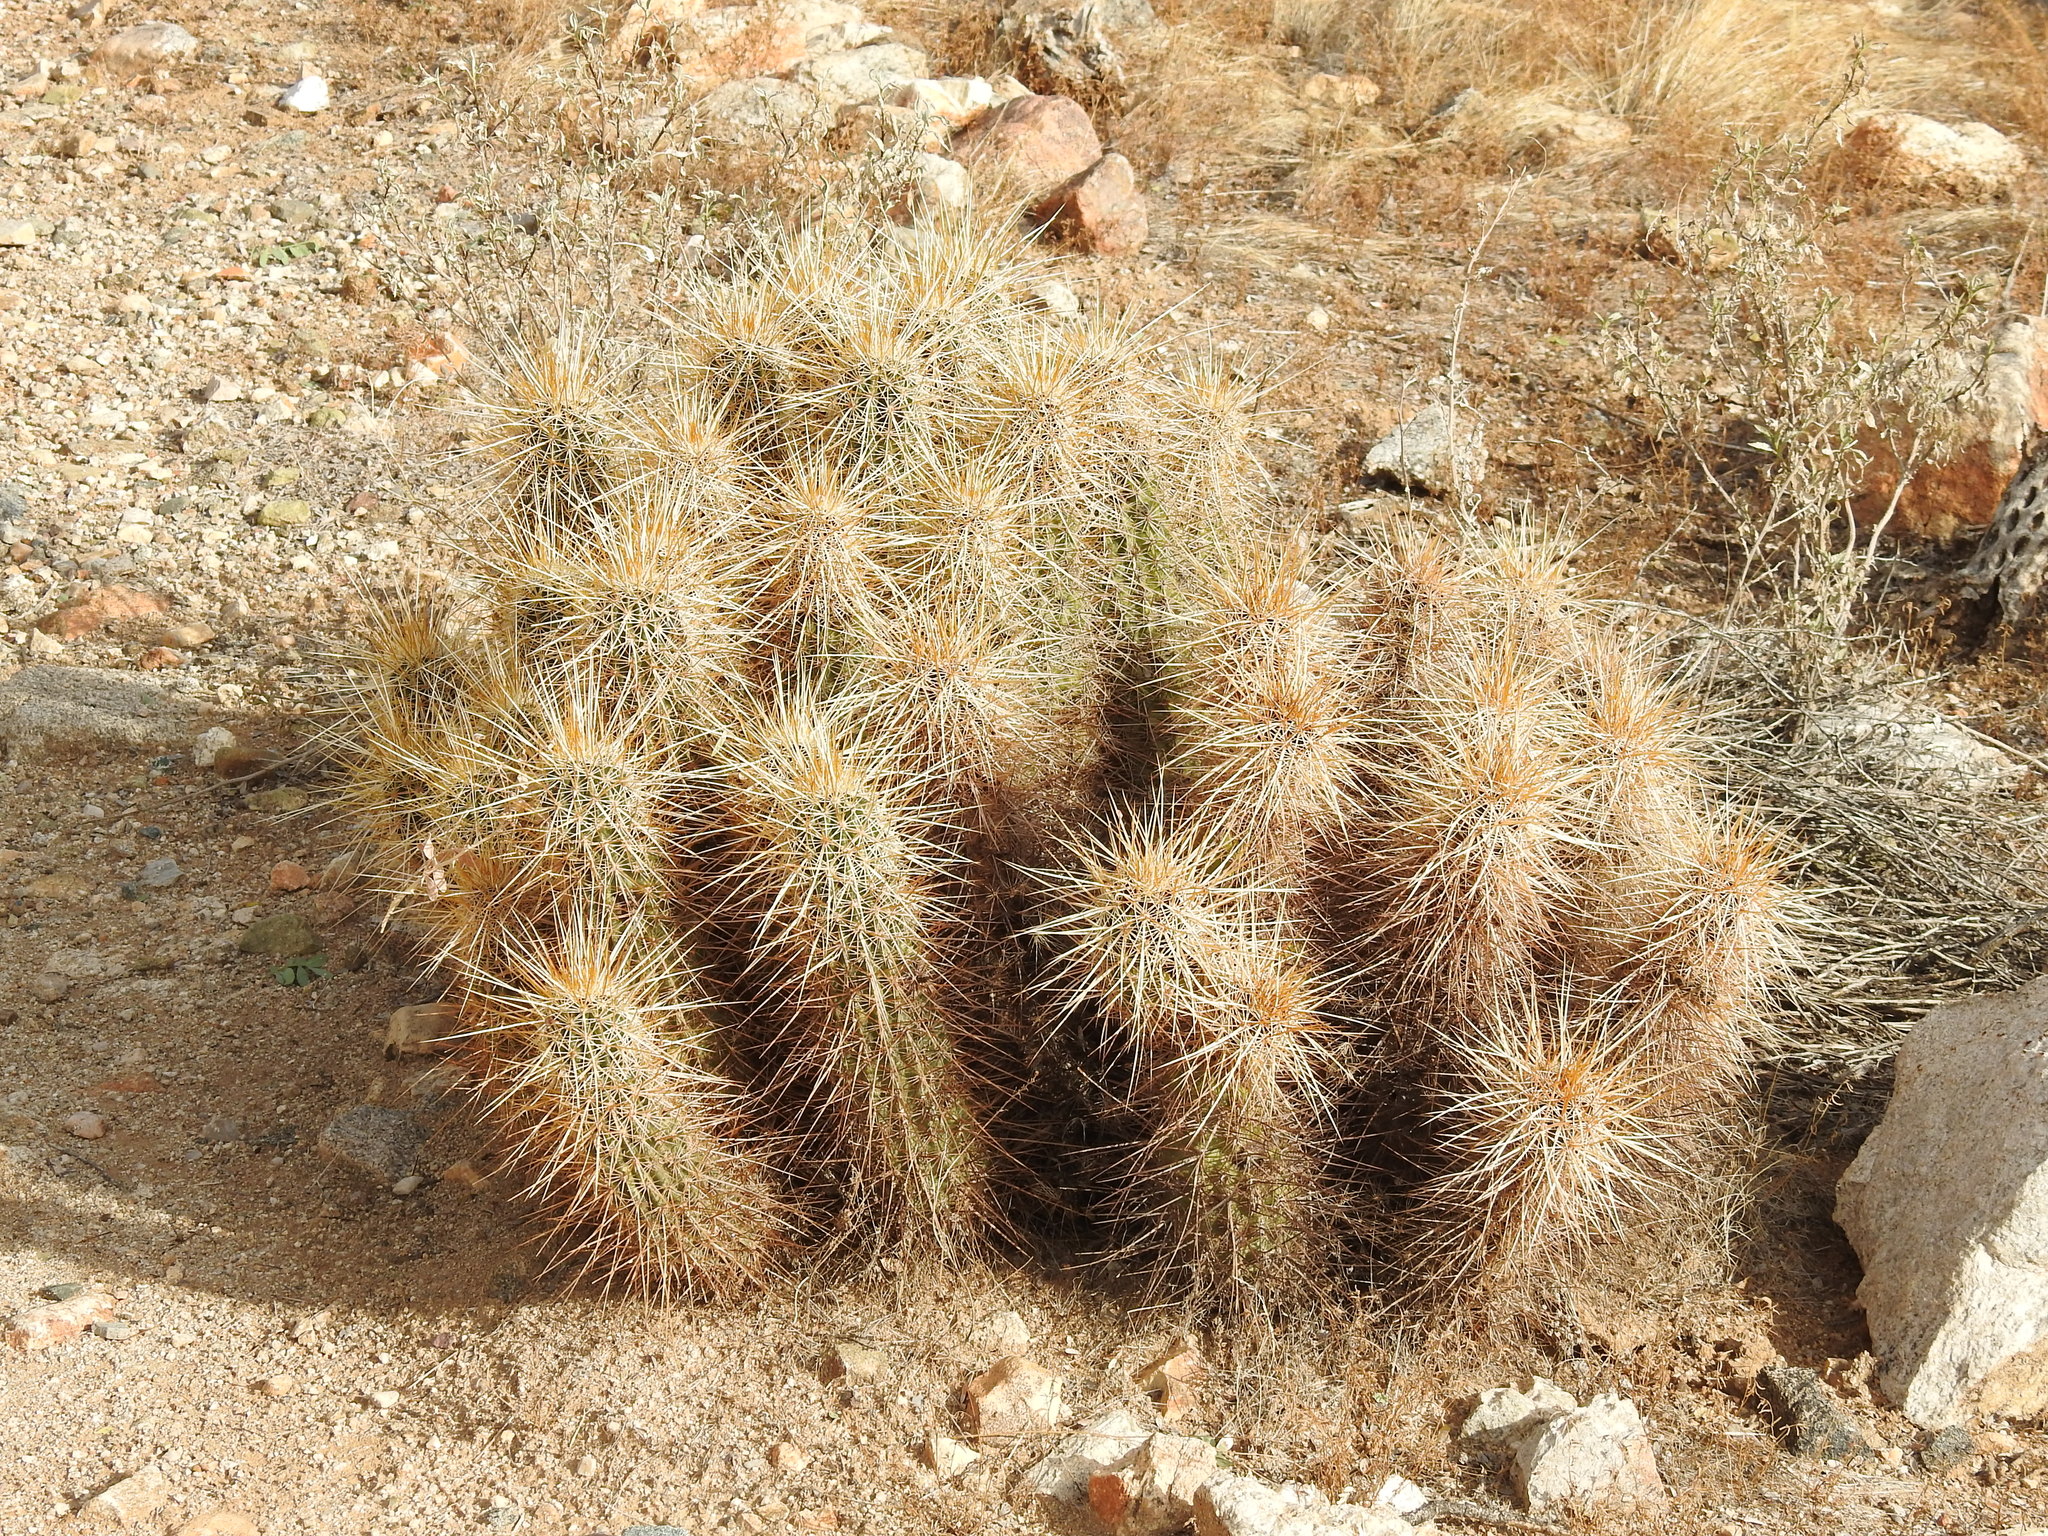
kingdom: Plantae
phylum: Tracheophyta
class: Magnoliopsida
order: Caryophyllales
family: Cactaceae
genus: Echinocereus
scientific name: Echinocereus engelmannii
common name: Engelmann's hedgehog cactus
